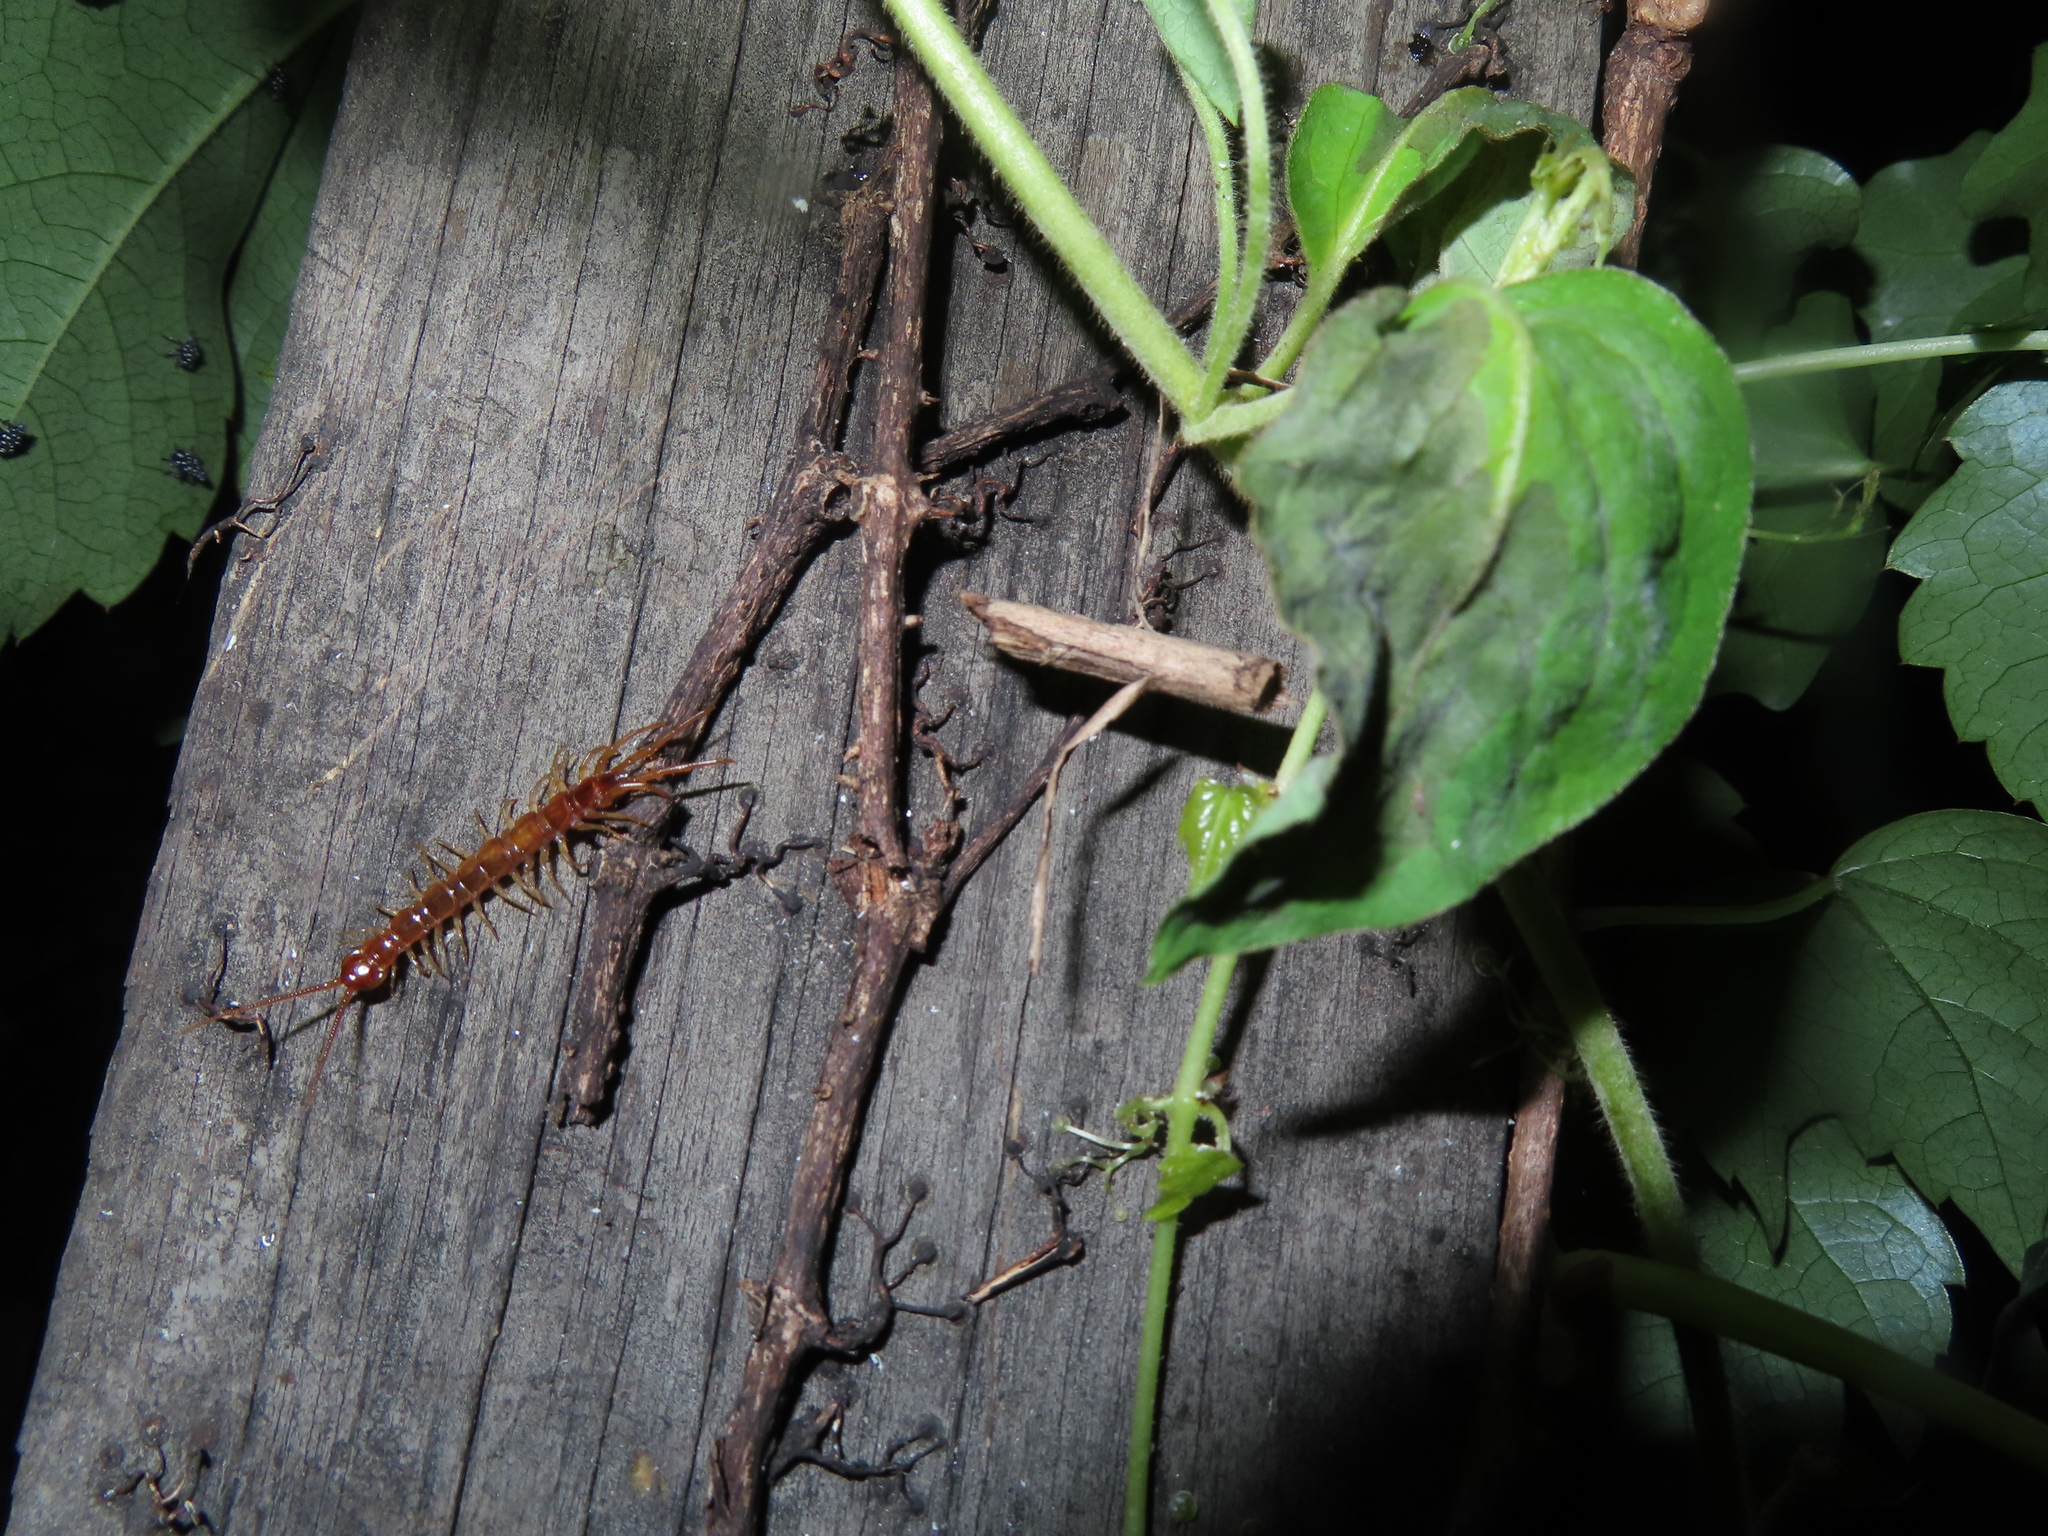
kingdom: Animalia
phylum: Arthropoda
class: Chilopoda
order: Lithobiomorpha
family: Lithobiidae
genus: Lithobius
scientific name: Lithobius forficatus
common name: Centipede
